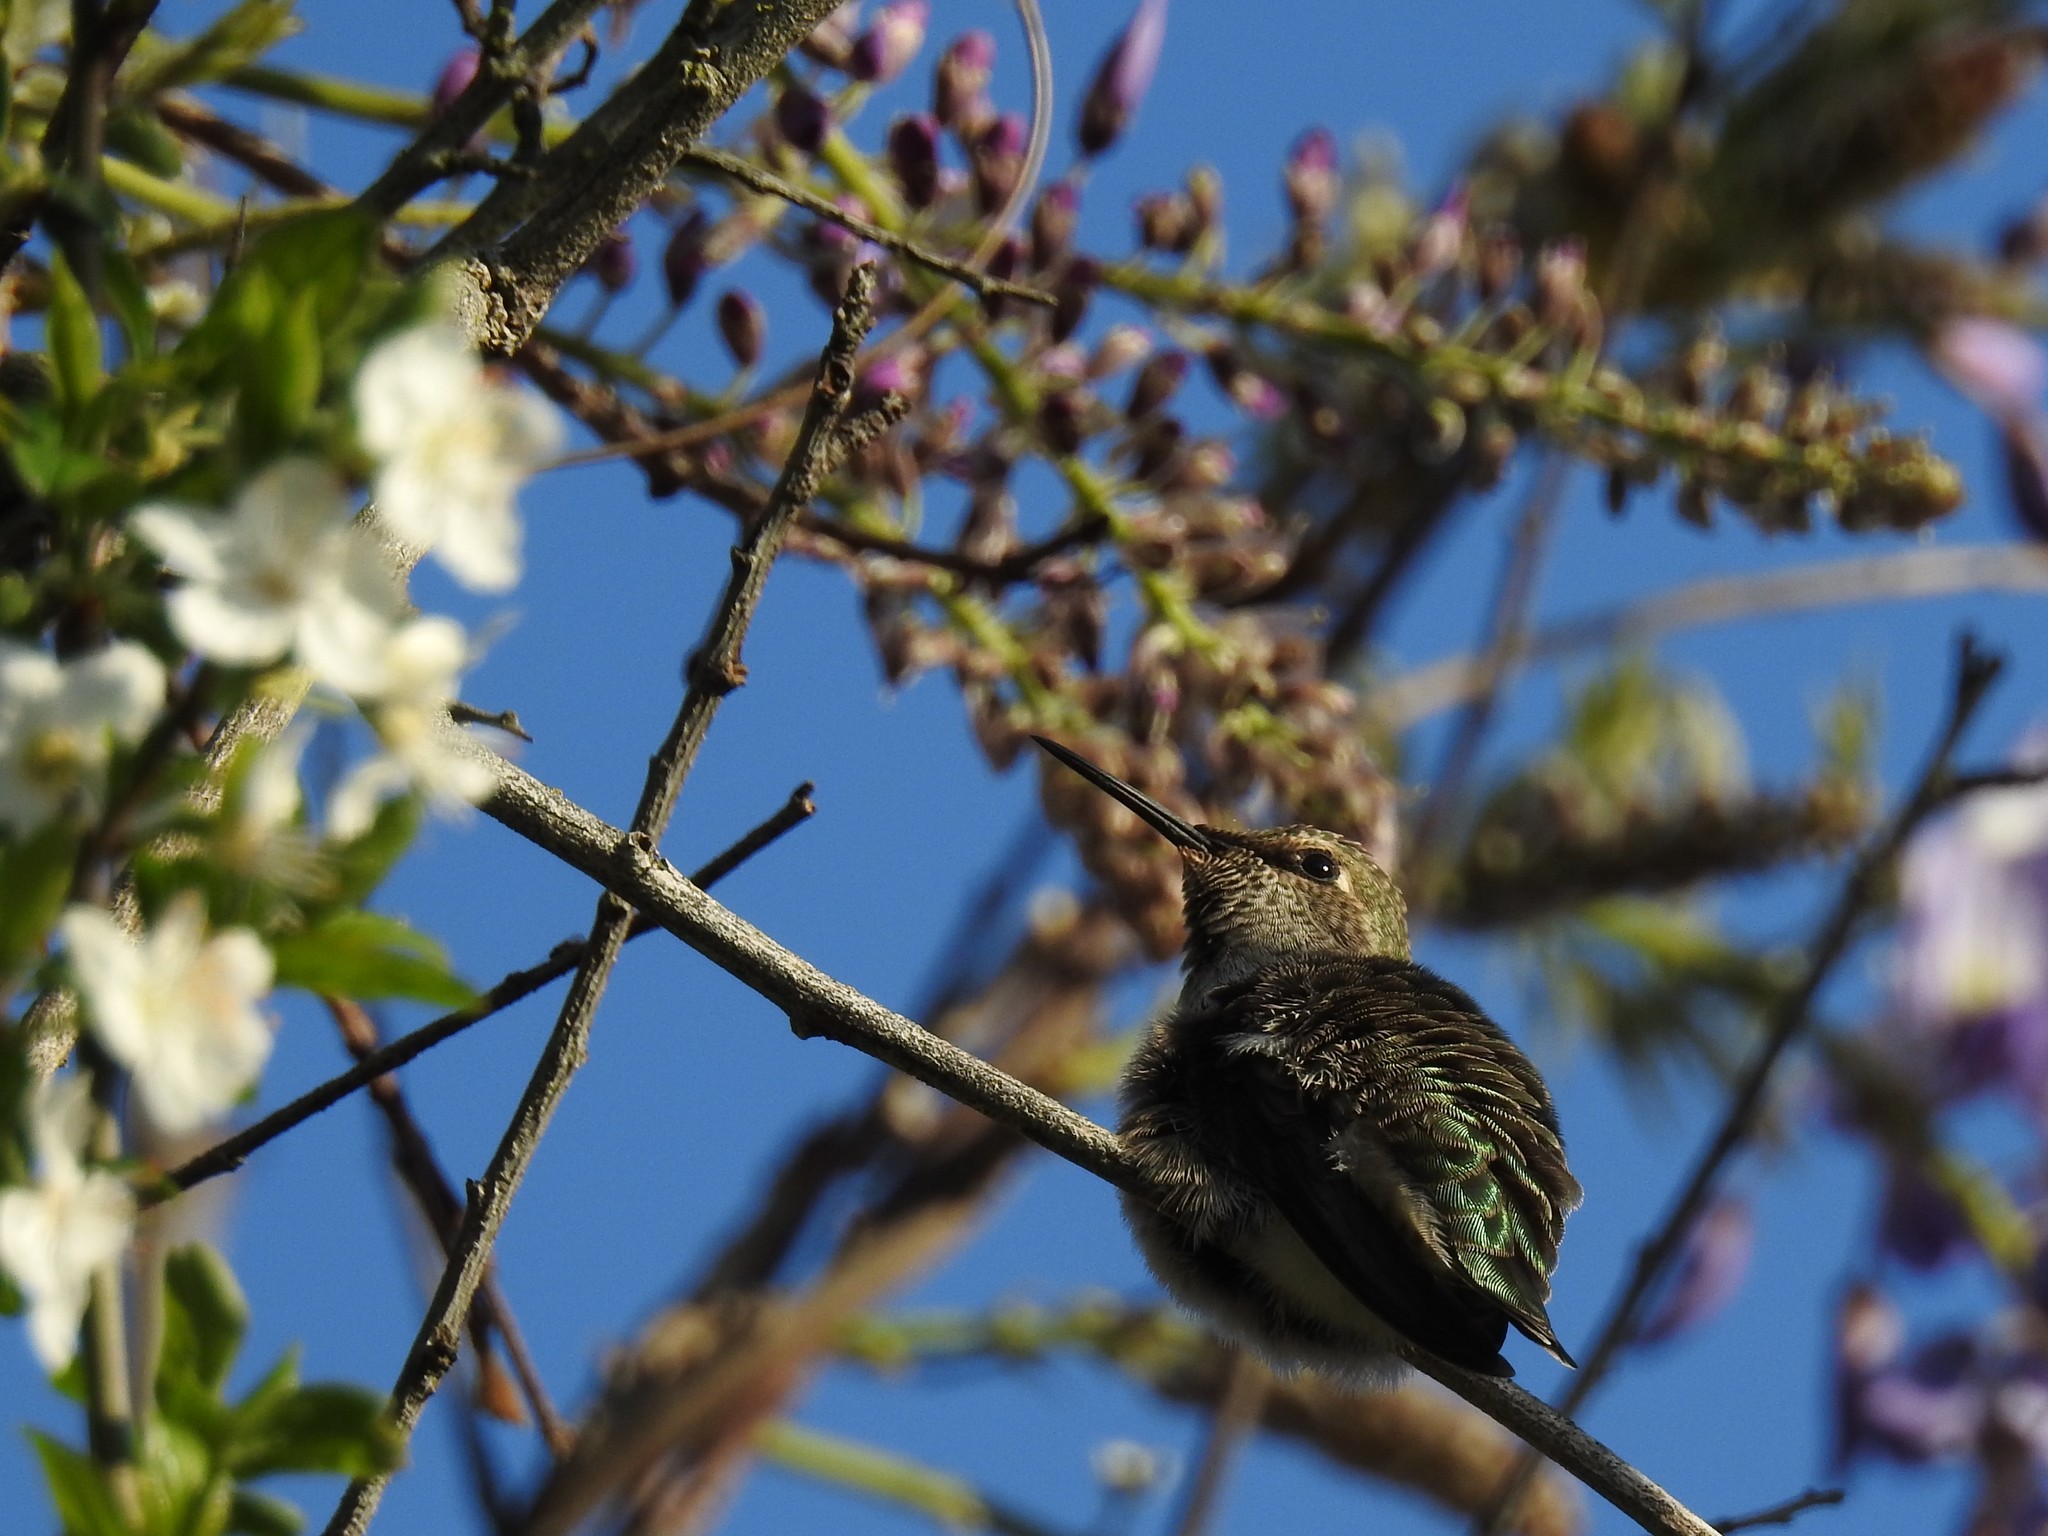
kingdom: Animalia
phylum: Chordata
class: Aves
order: Apodiformes
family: Trochilidae
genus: Calypte
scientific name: Calypte anna
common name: Anna's hummingbird
